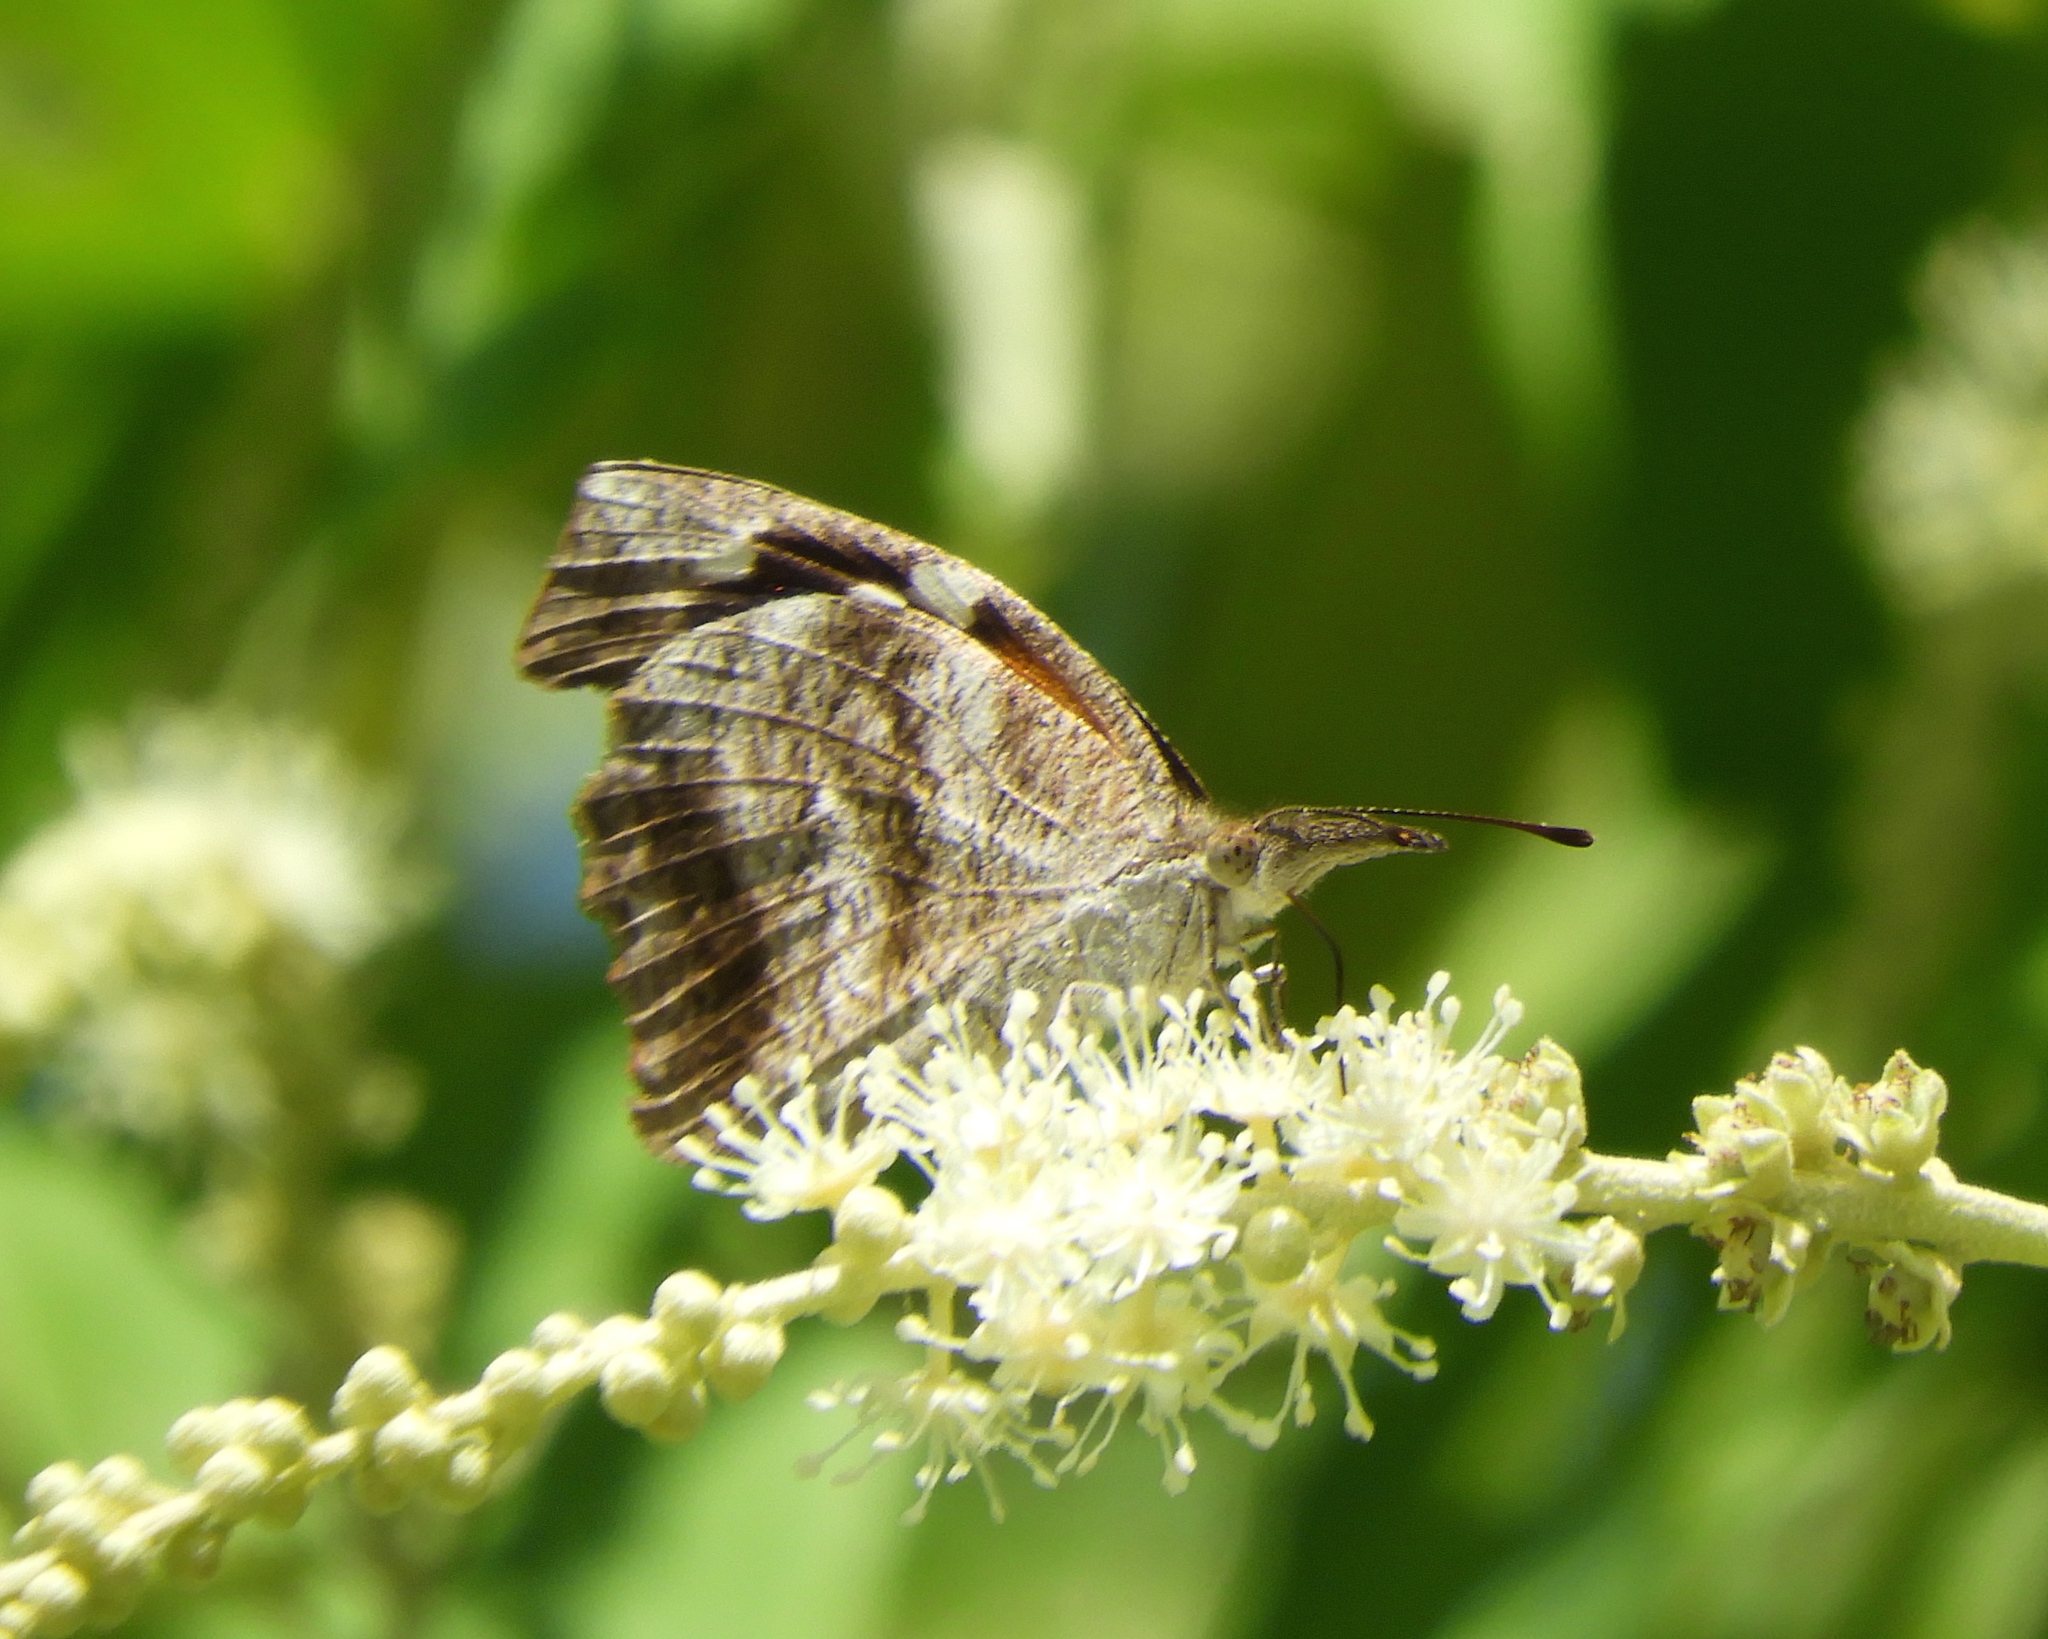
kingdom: Animalia
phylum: Arthropoda
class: Insecta
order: Lepidoptera
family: Nymphalidae
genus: Libytheana
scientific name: Libytheana carinenta
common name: American snout
